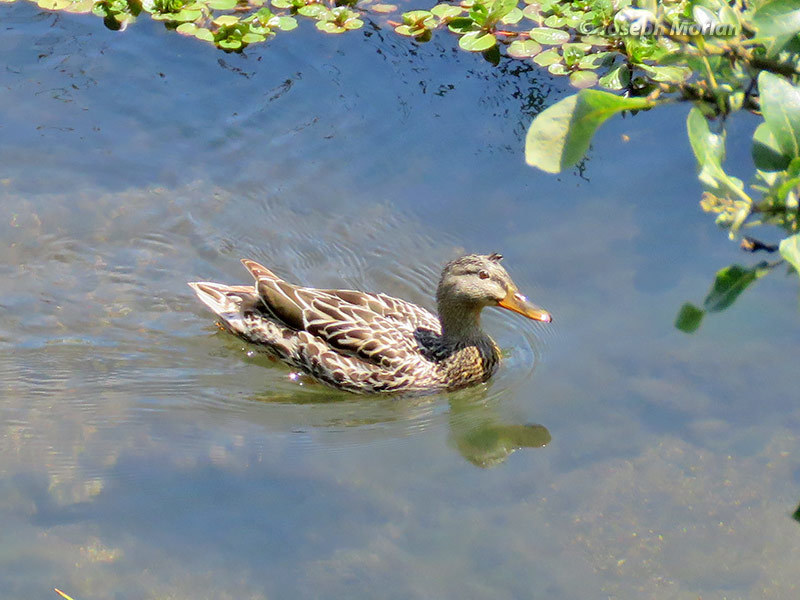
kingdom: Animalia
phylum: Chordata
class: Aves
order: Anseriformes
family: Anatidae
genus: Anas
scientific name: Anas platyrhynchos
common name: Mallard
